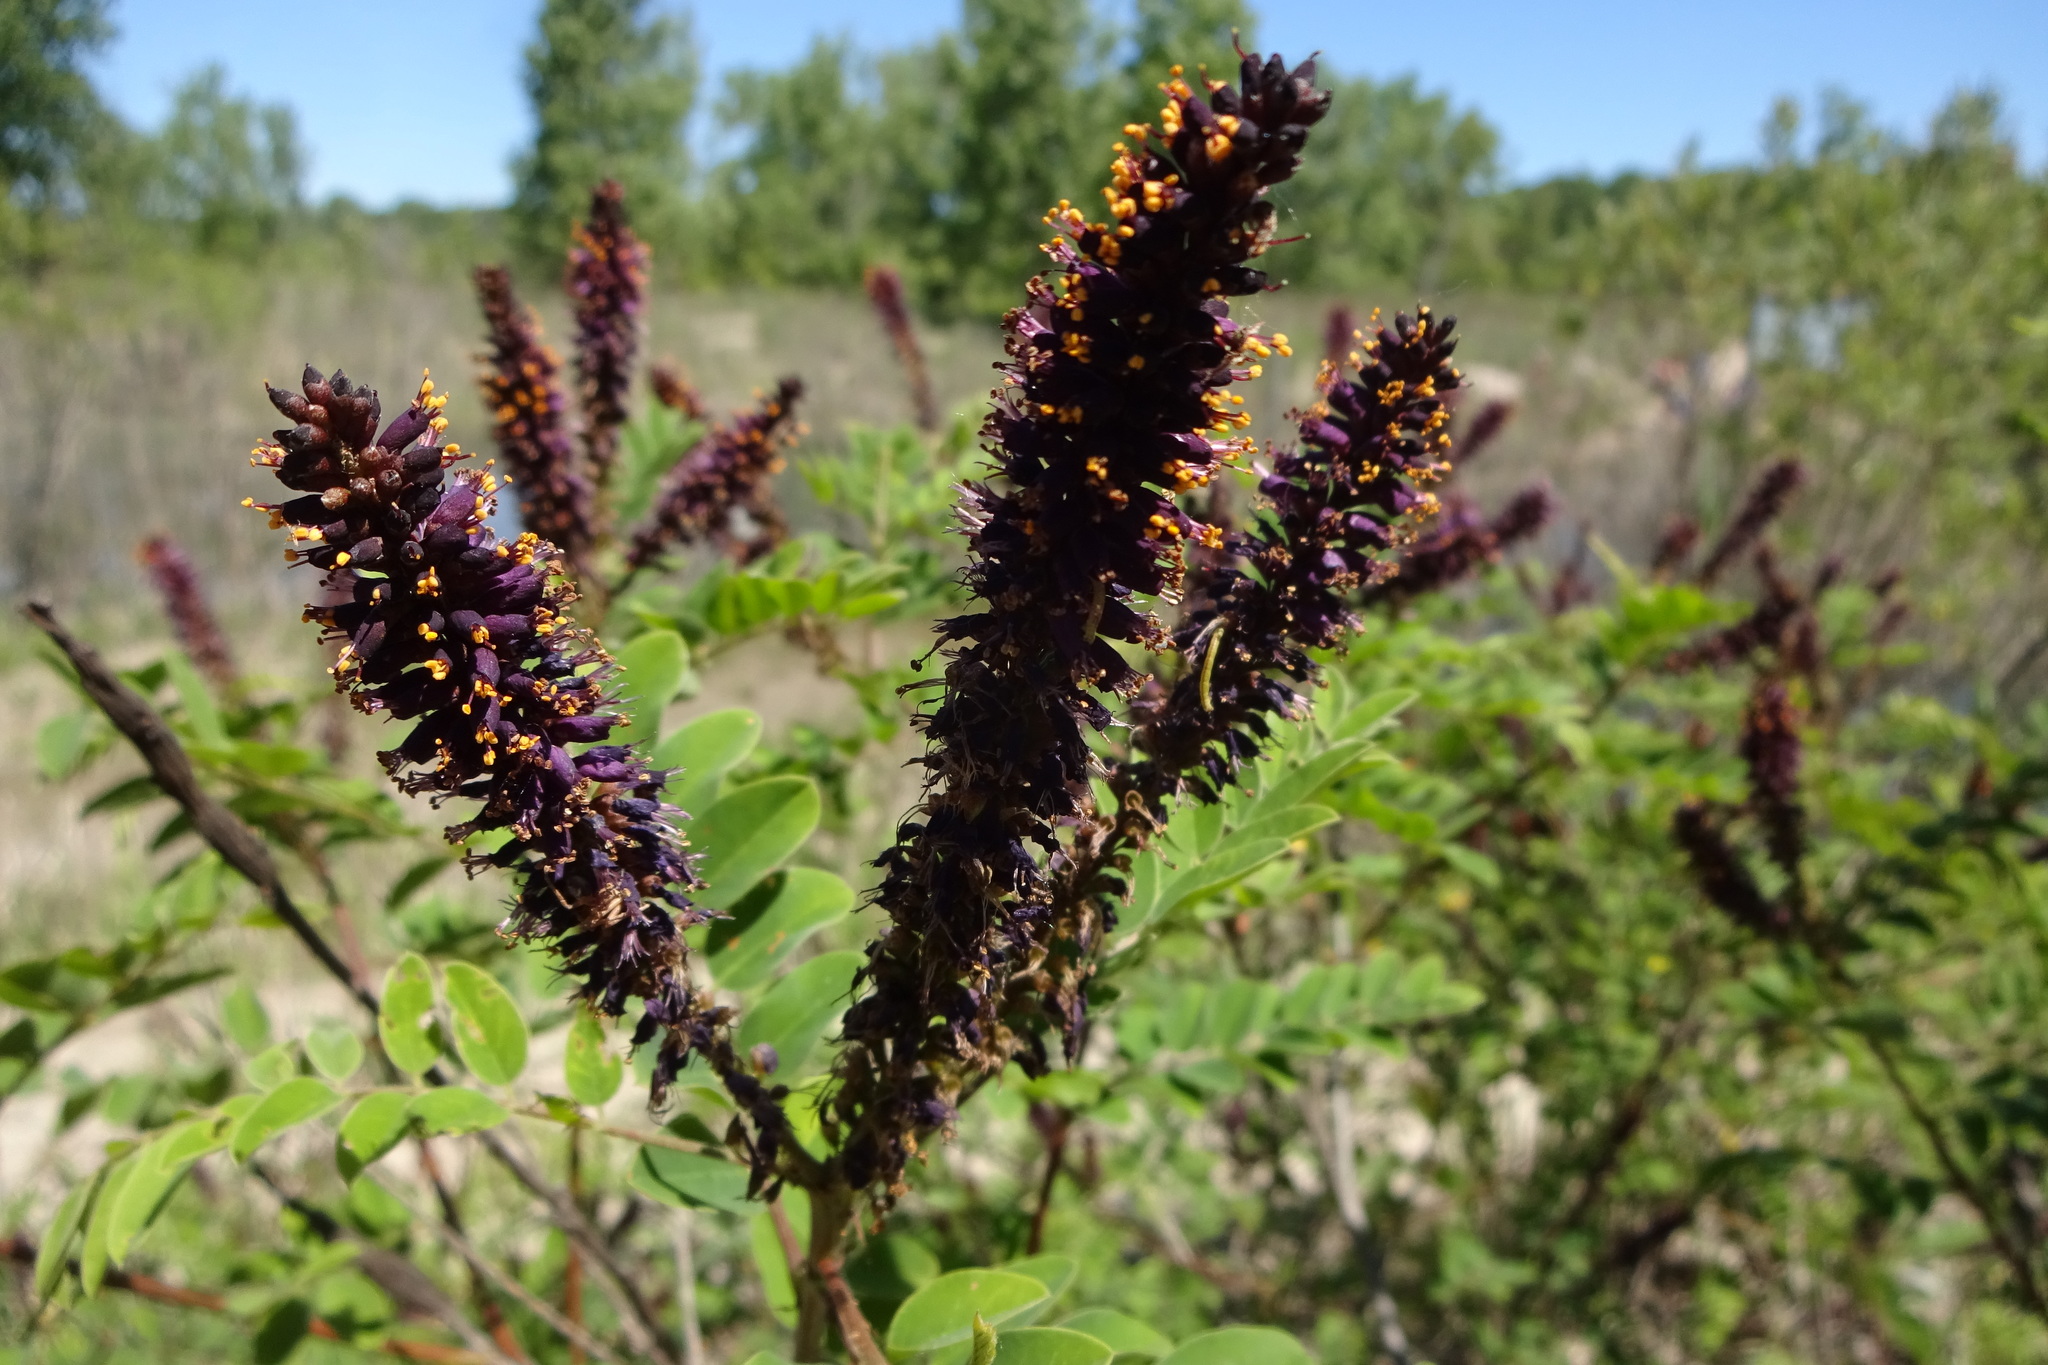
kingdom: Plantae
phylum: Tracheophyta
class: Magnoliopsida
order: Fabales
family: Fabaceae
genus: Amorpha
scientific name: Amorpha fruticosa
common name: False indigo
